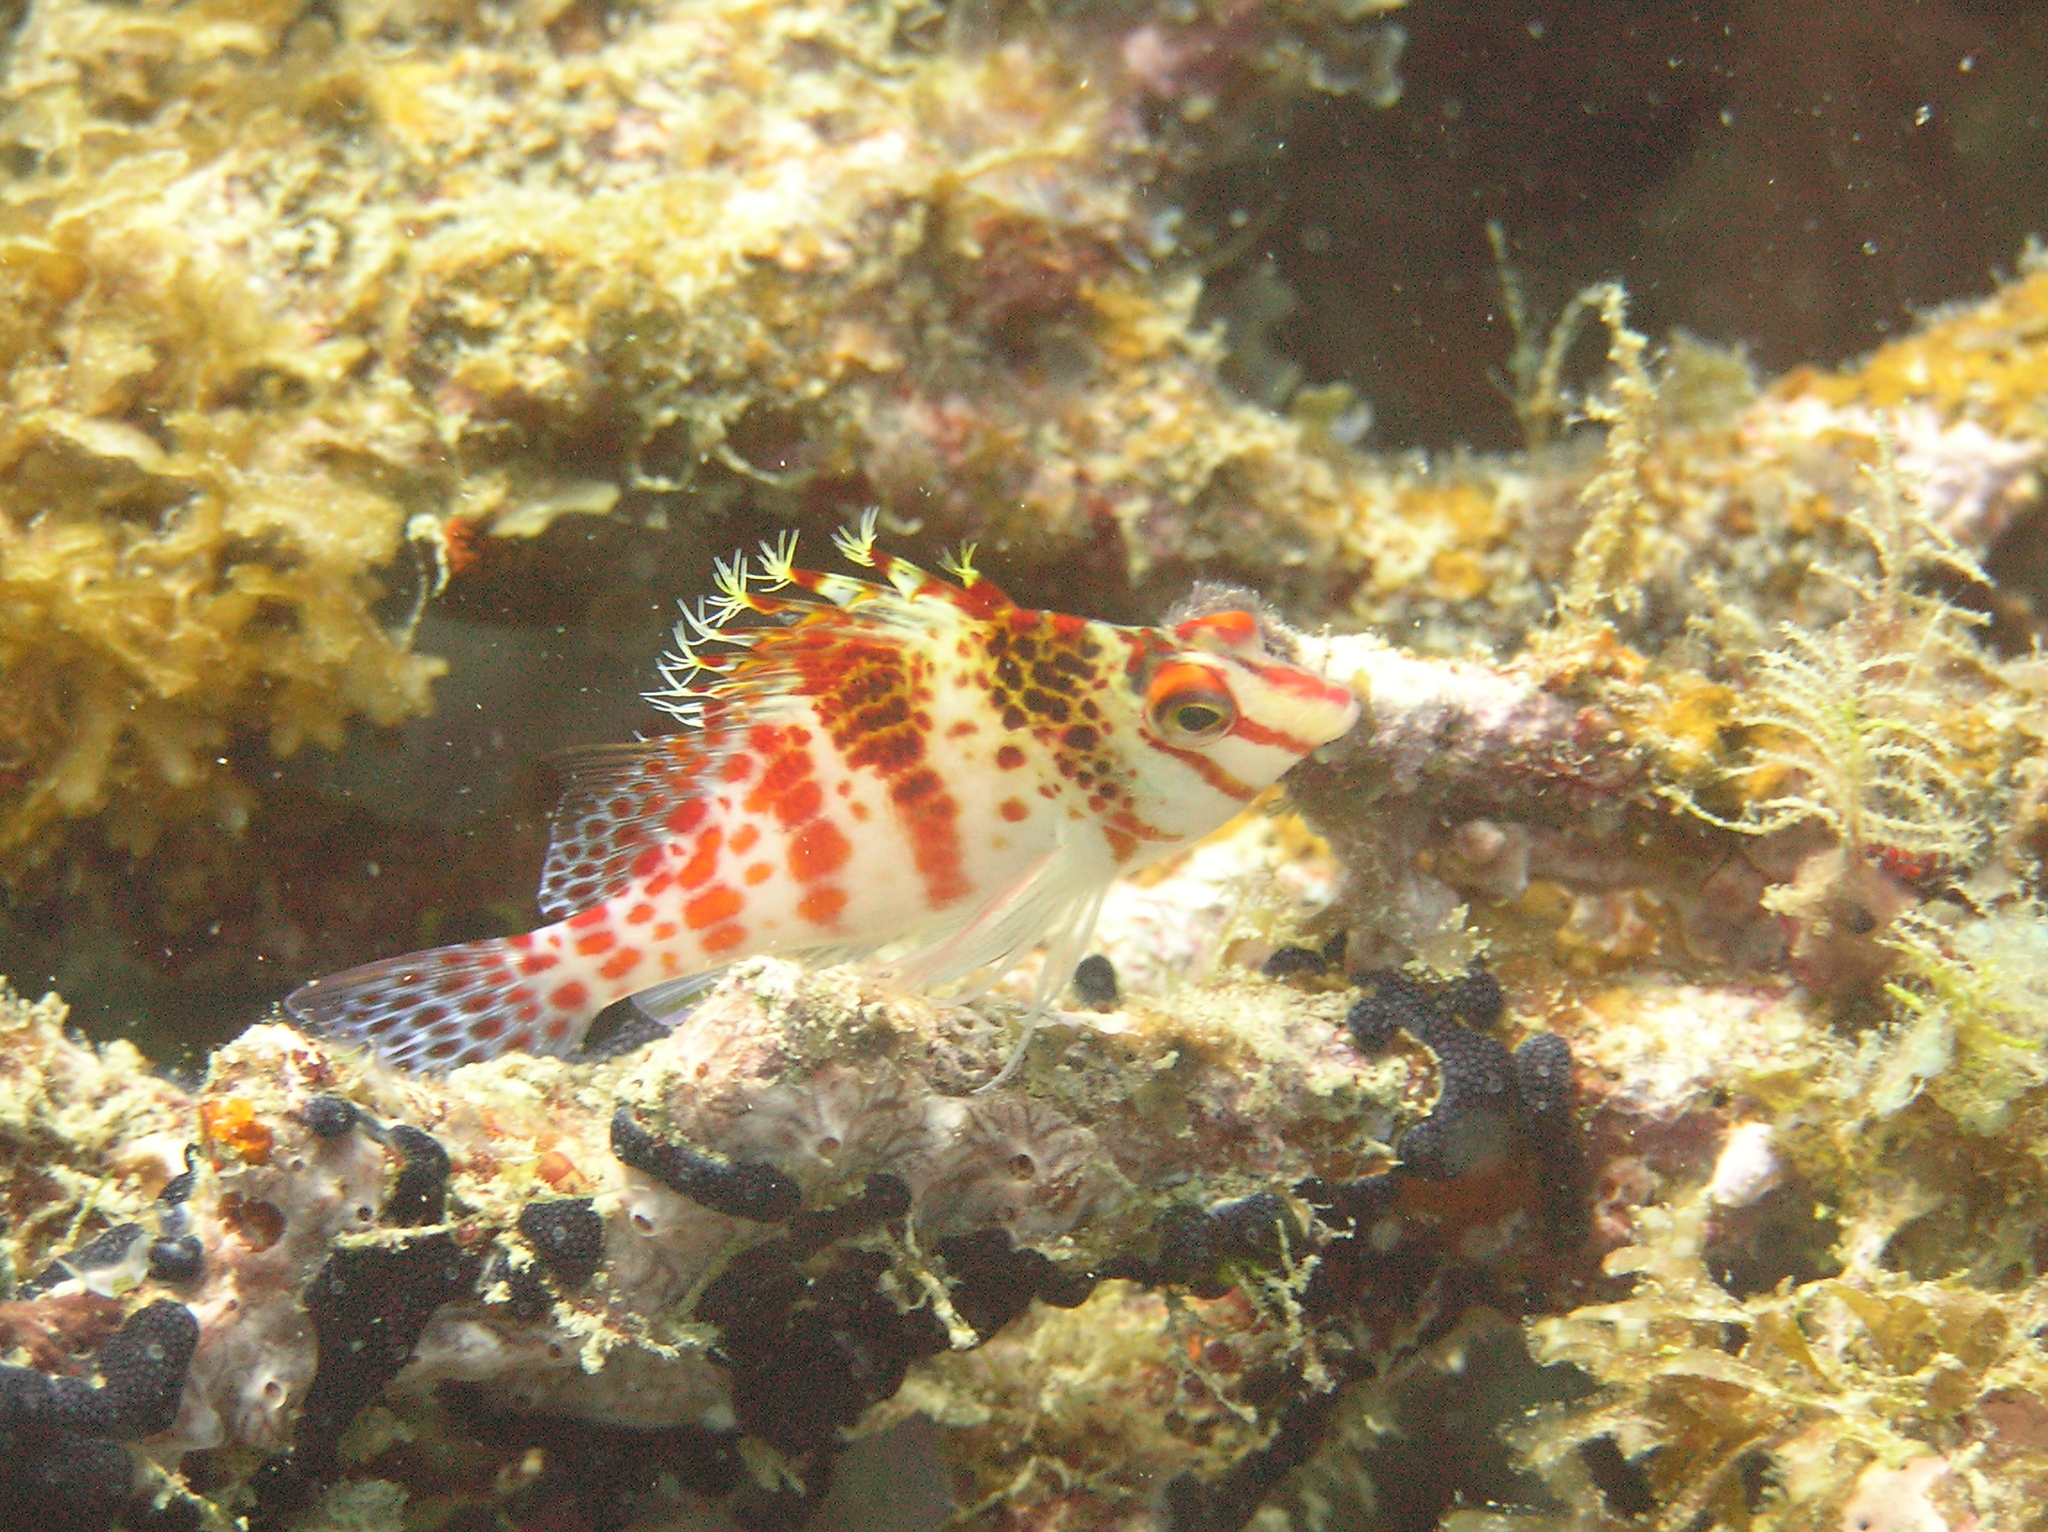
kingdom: Animalia
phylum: Chordata
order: Perciformes
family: Cirrhitidae
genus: Cirrhitichthys
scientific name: Cirrhitichthys falco
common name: Coral hawkfish
